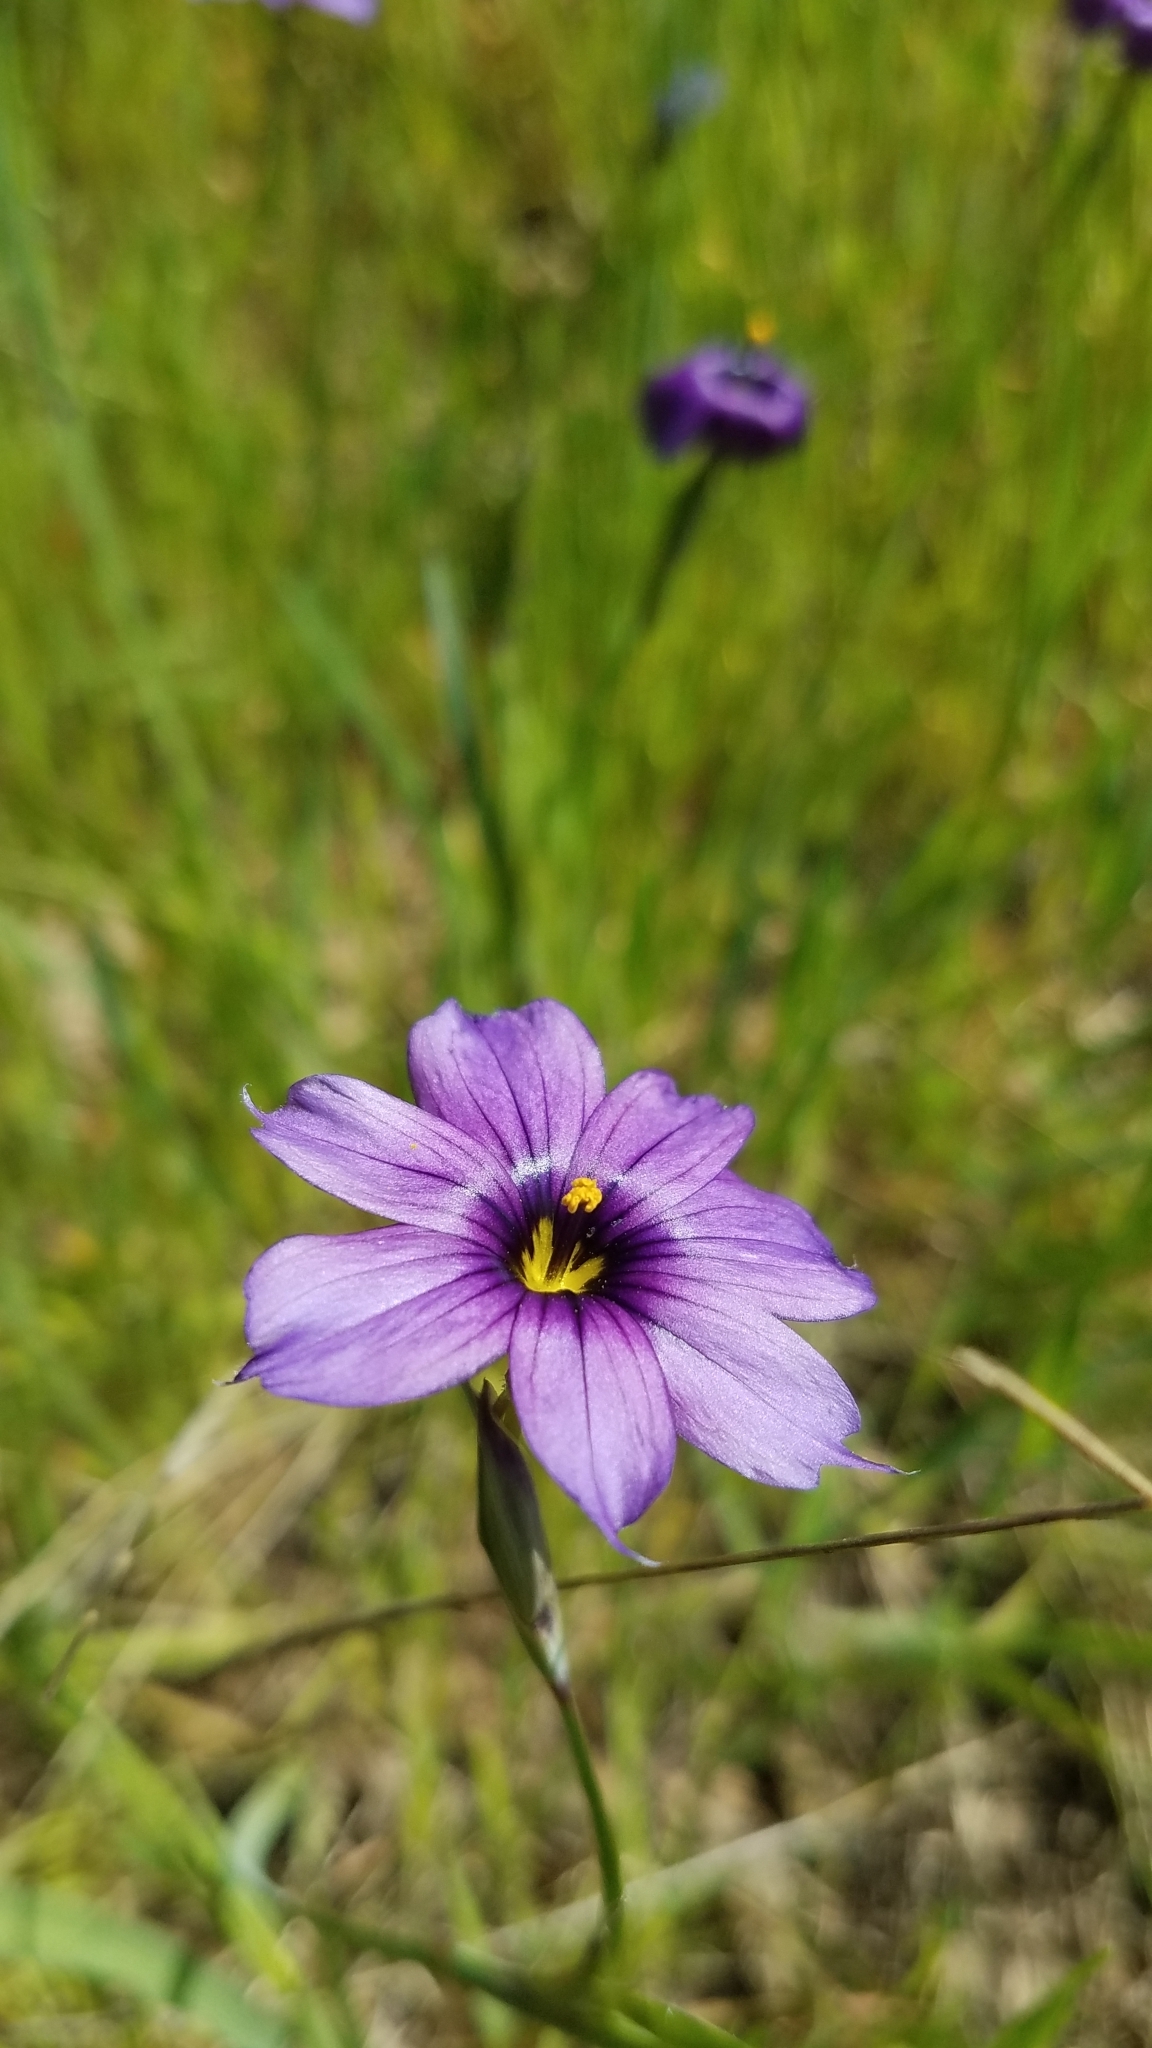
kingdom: Plantae
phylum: Tracheophyta
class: Liliopsida
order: Asparagales
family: Iridaceae
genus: Sisyrinchium
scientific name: Sisyrinchium bellum
